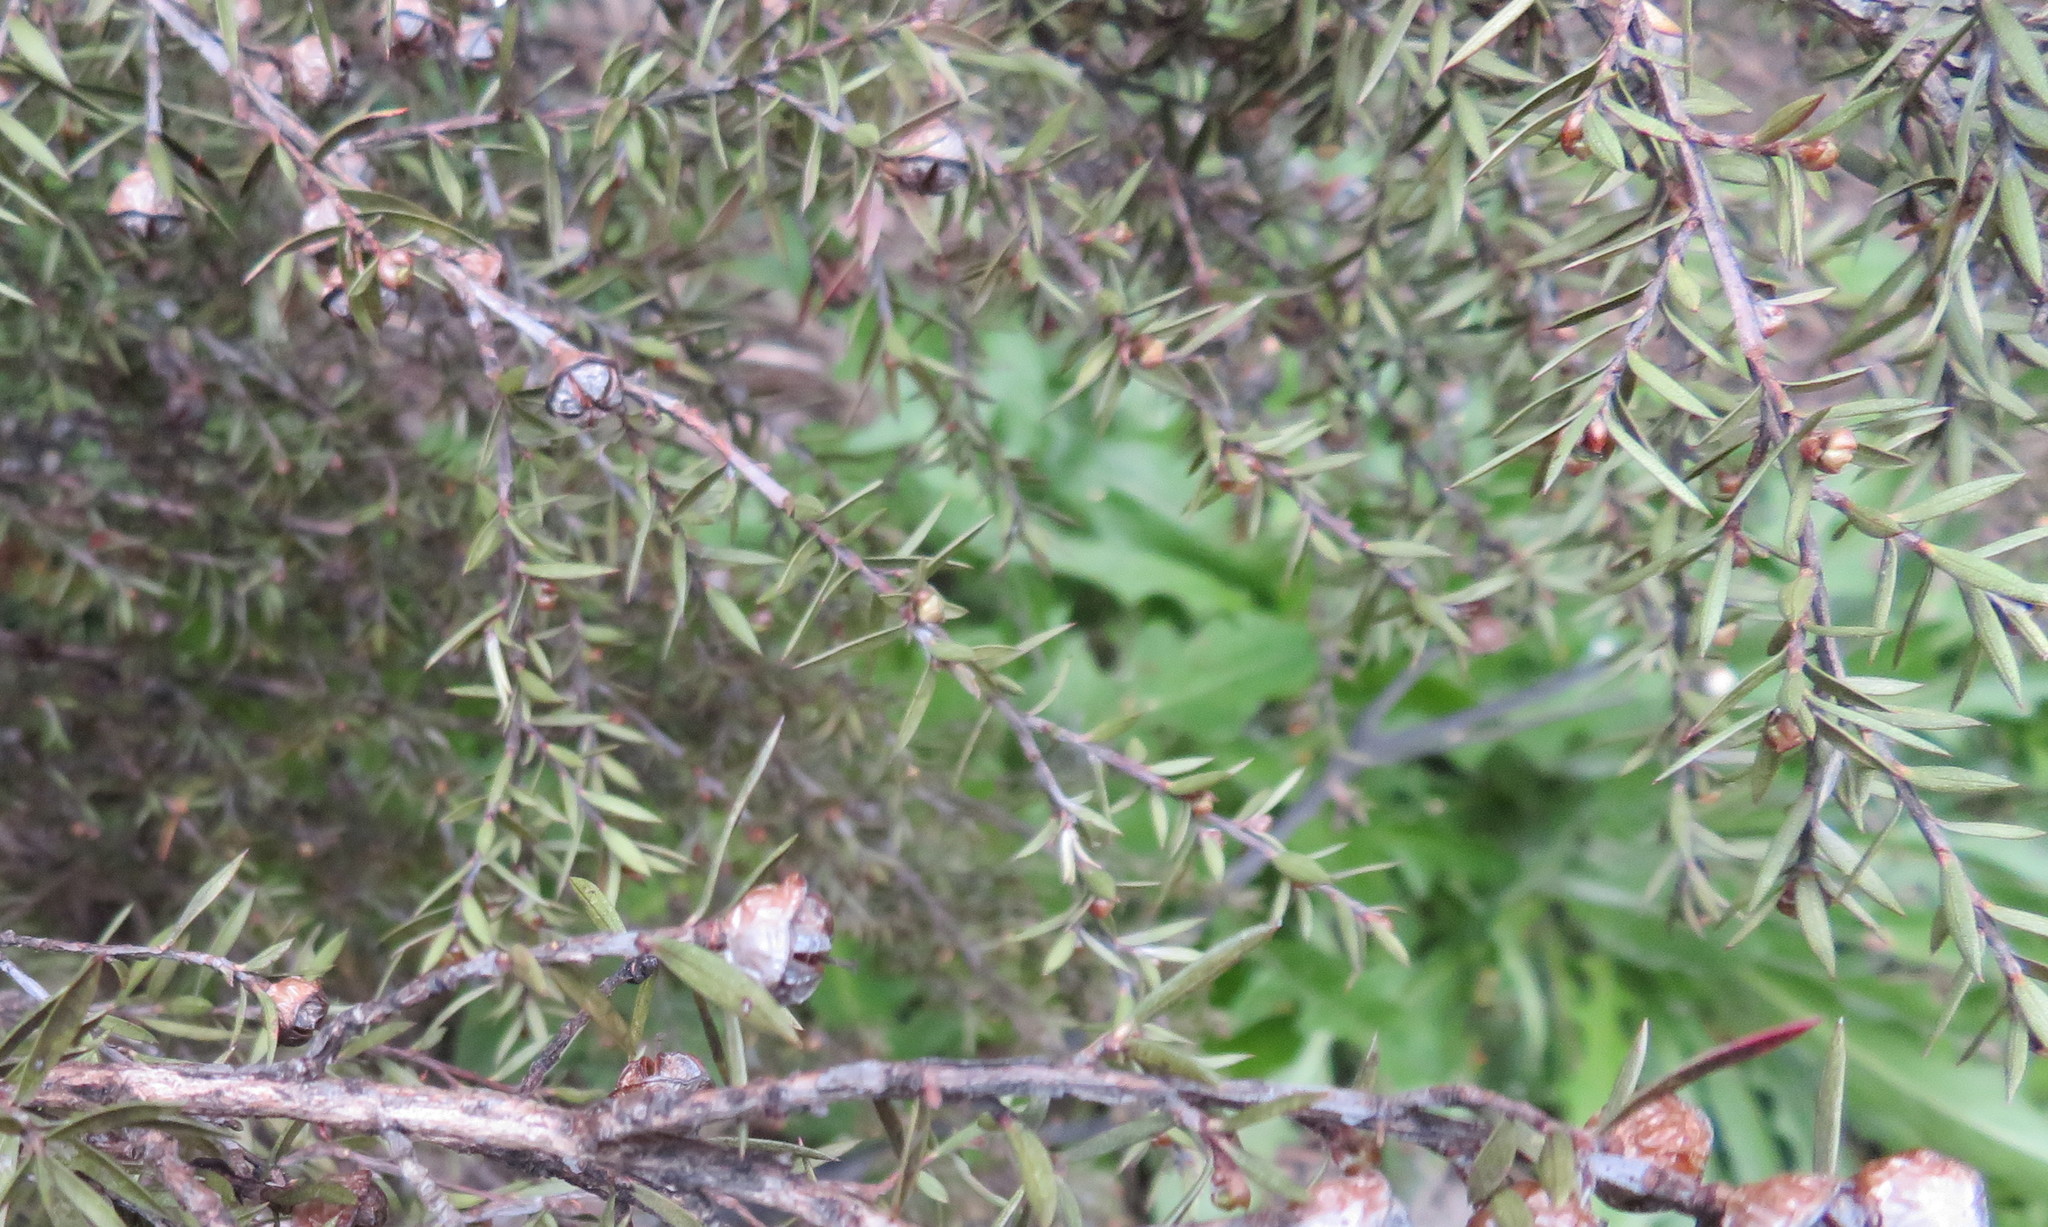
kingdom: Plantae
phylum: Tracheophyta
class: Magnoliopsida
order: Myrtales
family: Myrtaceae
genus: Leptospermum
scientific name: Leptospermum scoparium
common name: Broom tea-tree
